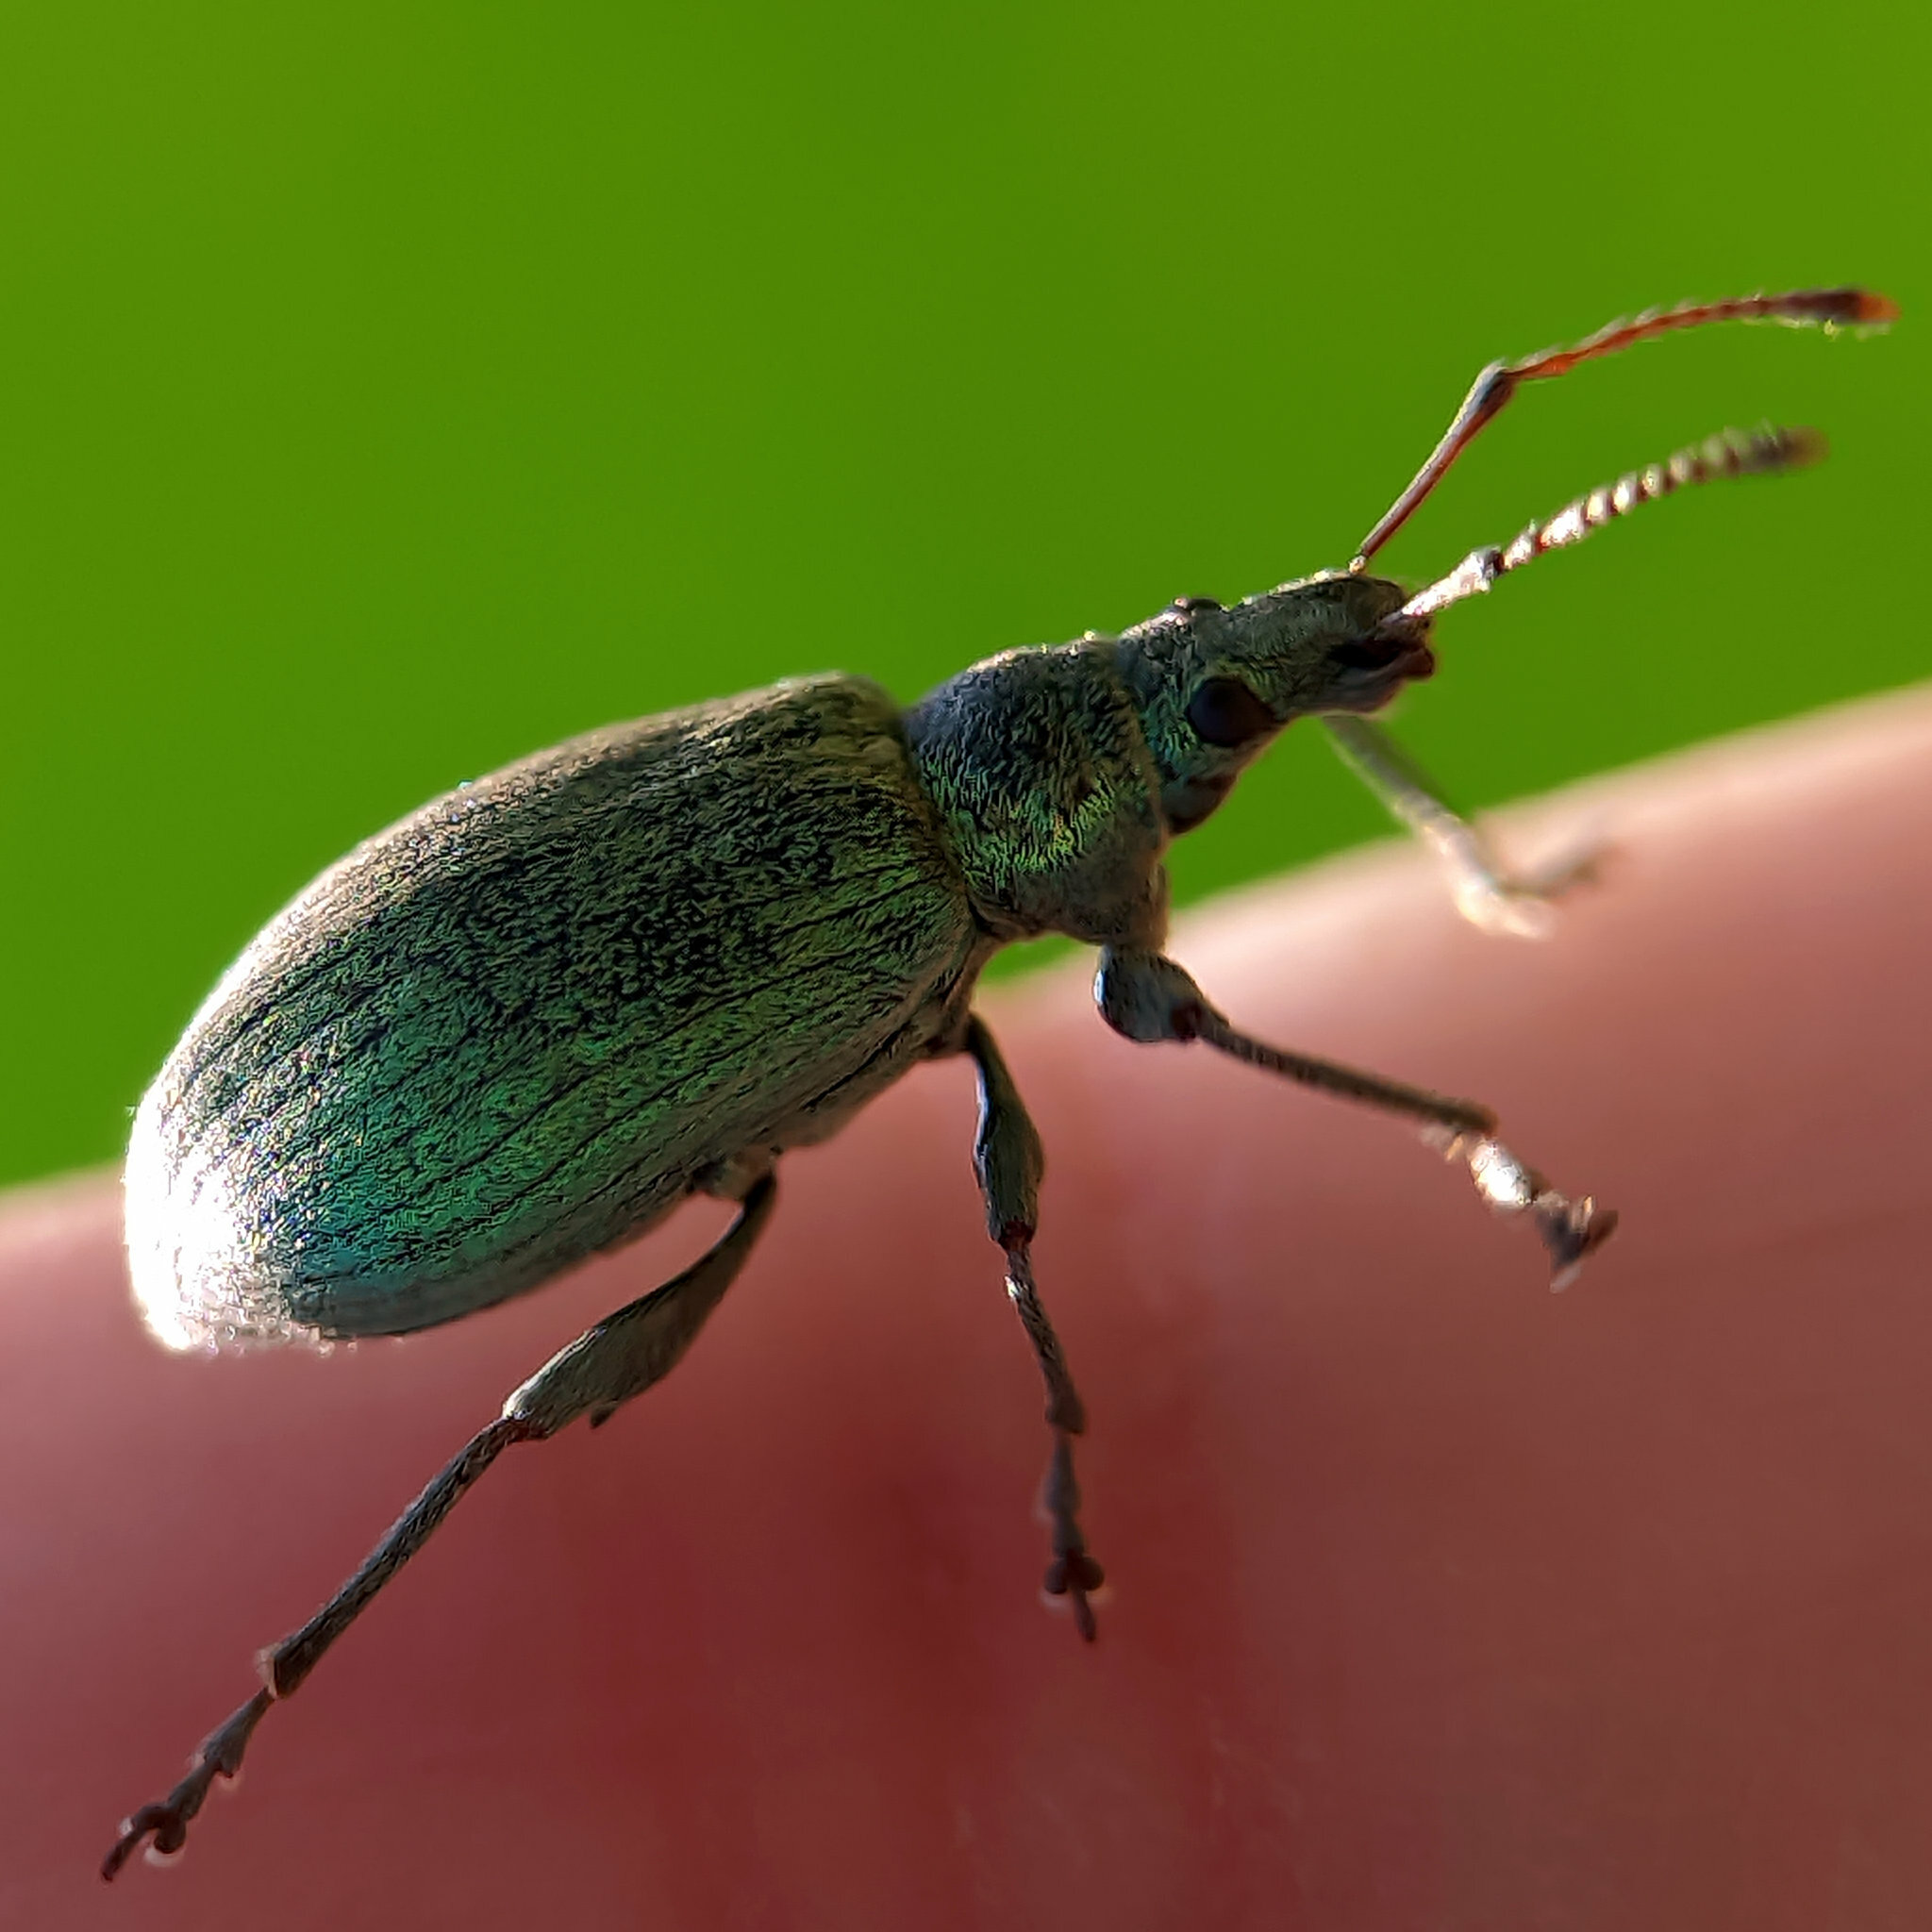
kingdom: Animalia
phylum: Arthropoda
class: Insecta
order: Coleoptera
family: Curculionidae
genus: Phyllobius
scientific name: Phyllobius pomaceus
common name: Green nettle weevil
